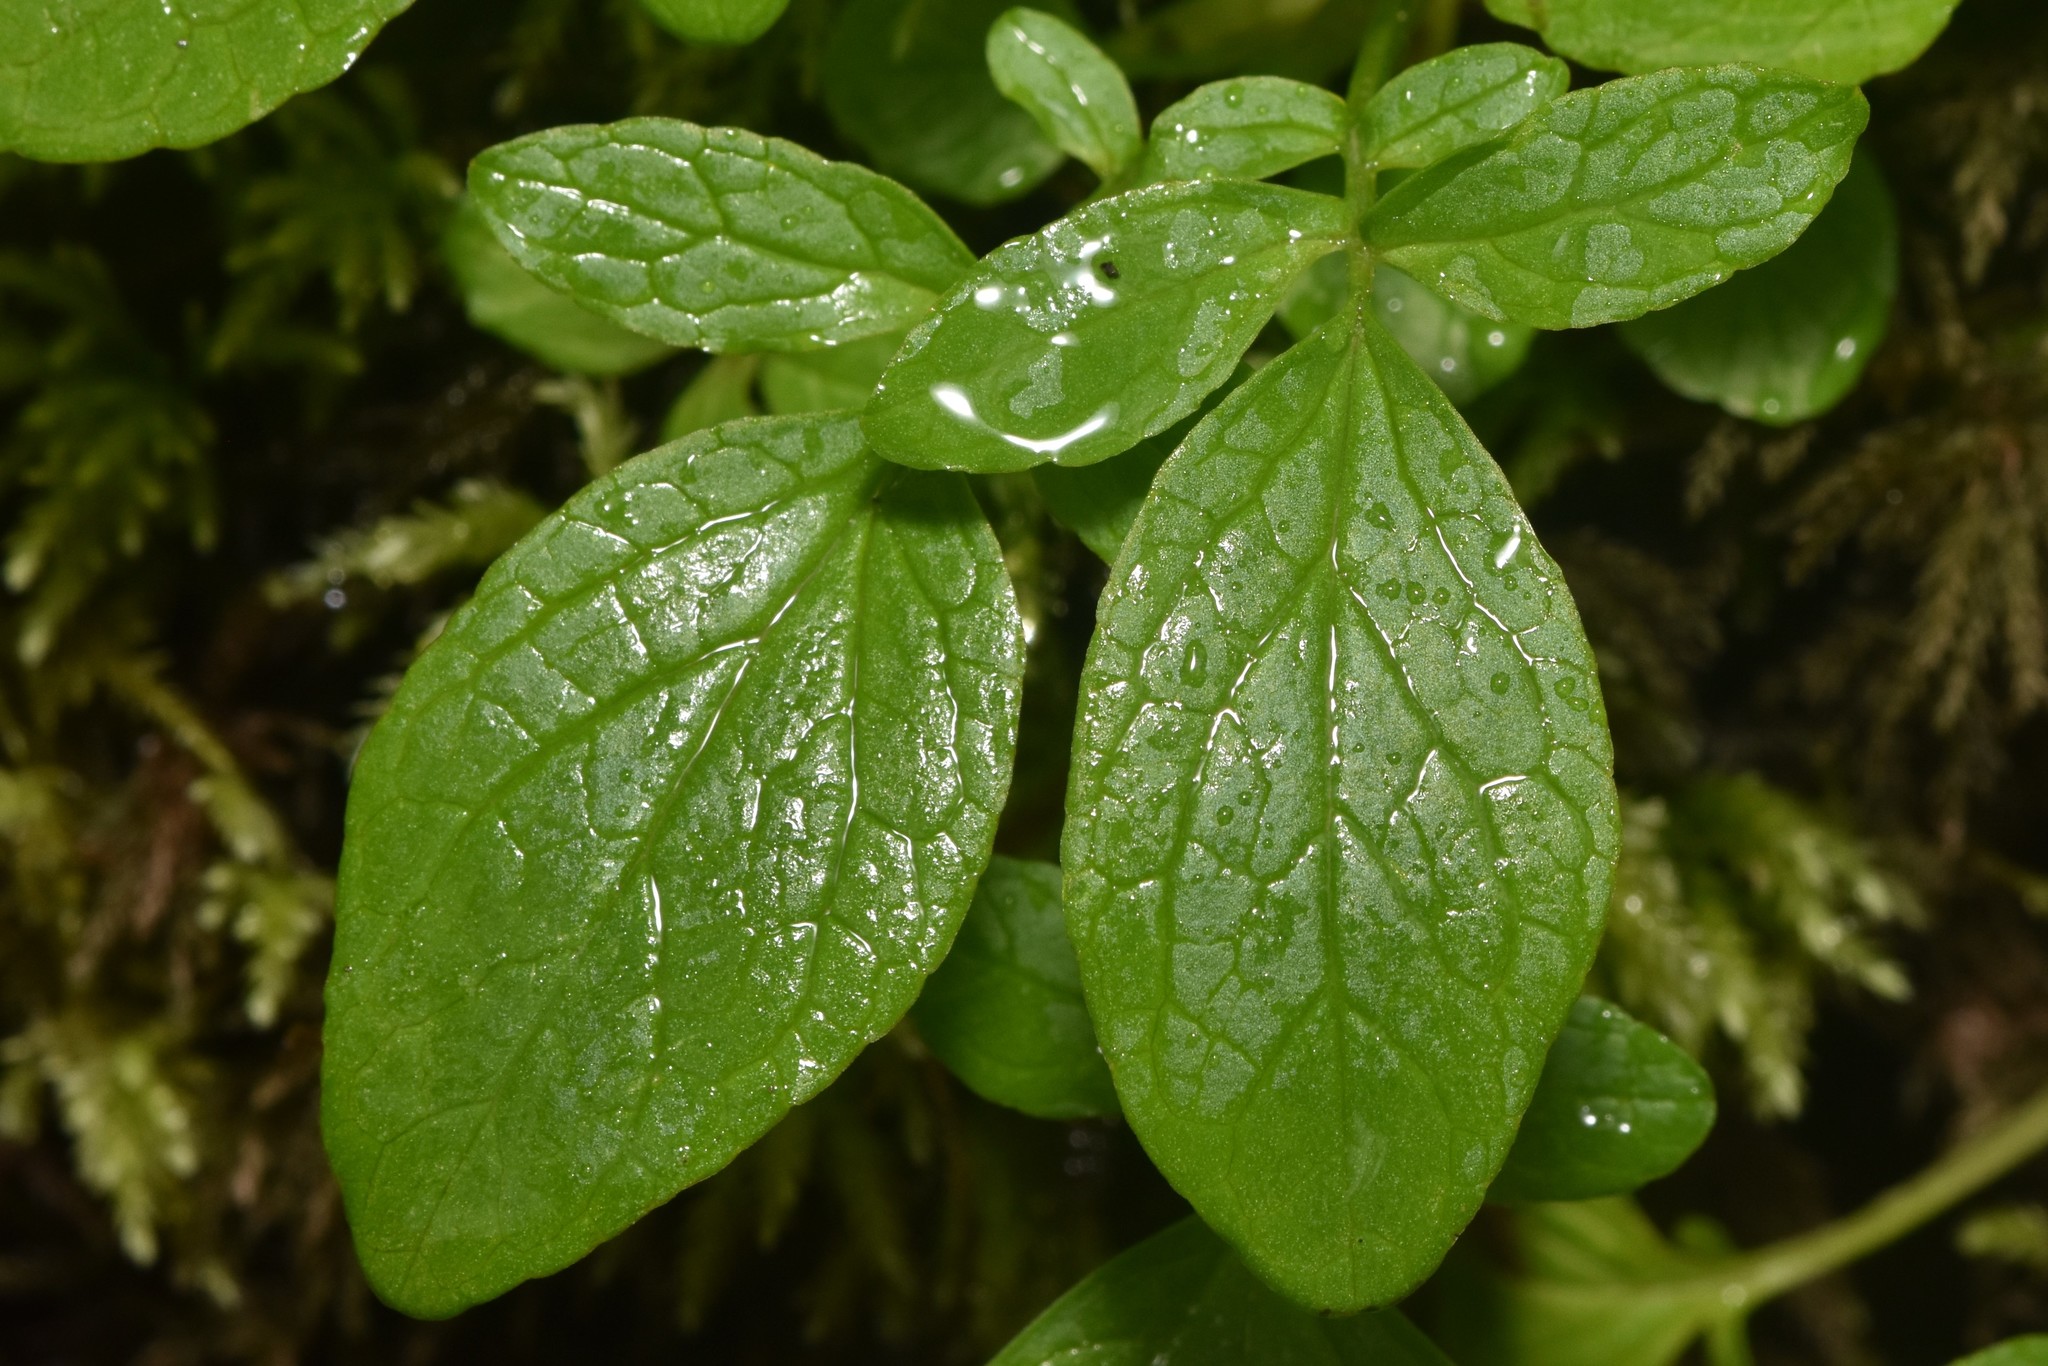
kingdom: Plantae
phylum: Tracheophyta
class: Magnoliopsida
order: Dipsacales
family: Caprifoliaceae
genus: Valeriana
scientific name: Valeriana sitchensis
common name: Pacific valerian
